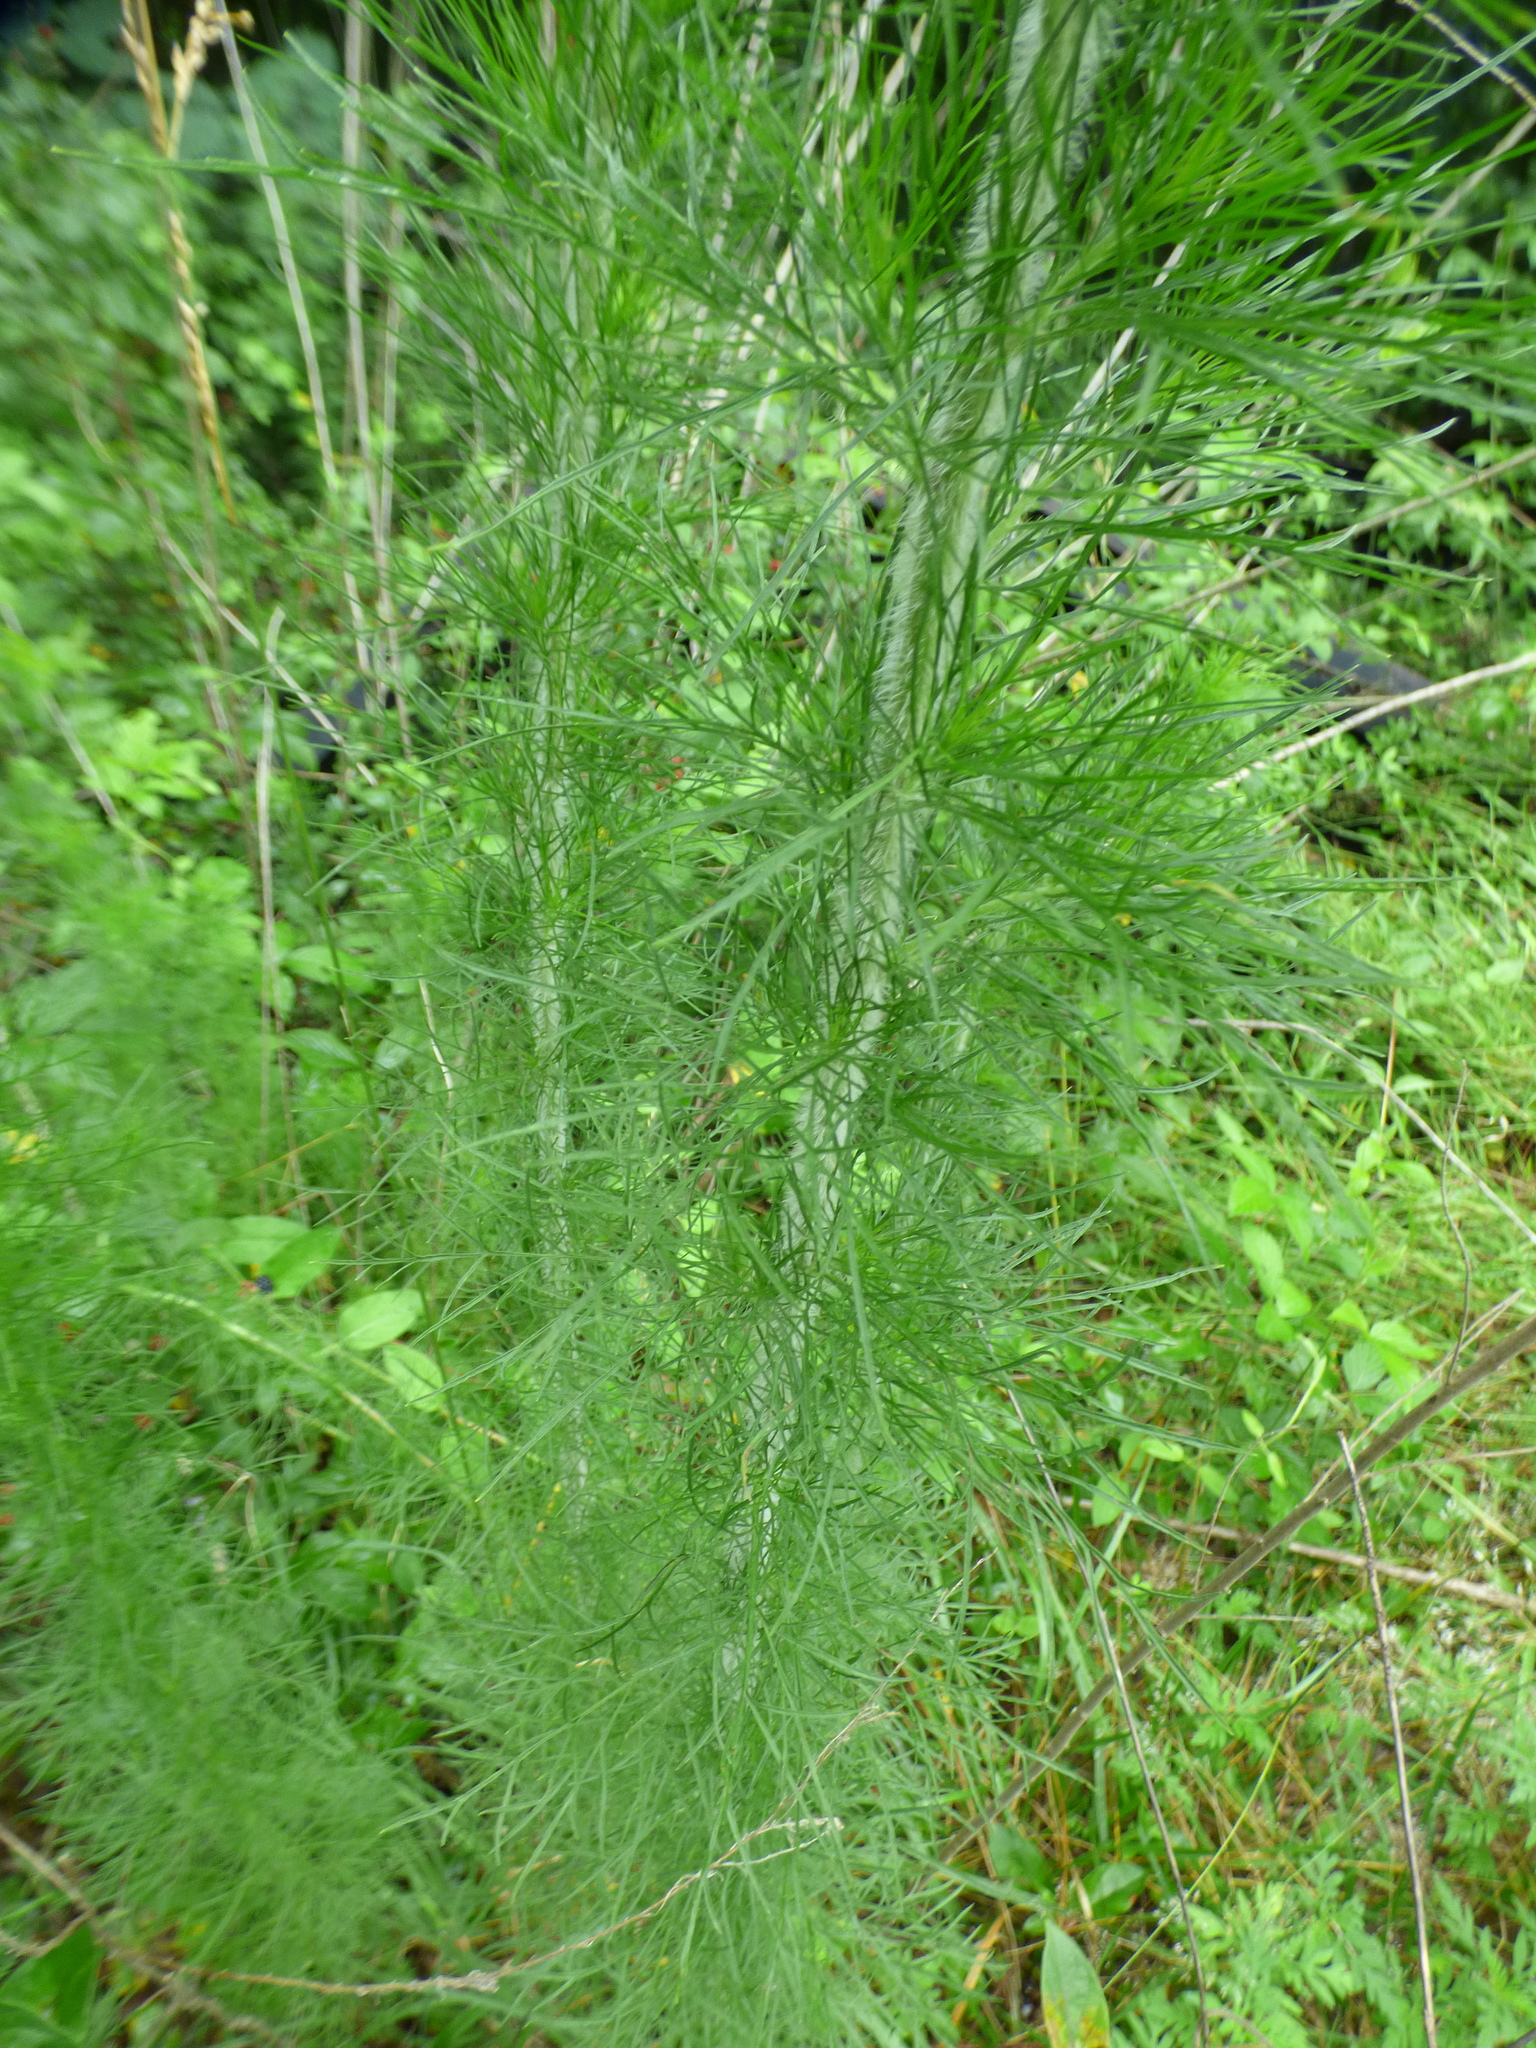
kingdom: Plantae
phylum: Tracheophyta
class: Magnoliopsida
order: Asterales
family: Asteraceae
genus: Eupatorium
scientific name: Eupatorium capillifolium
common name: Dog-fennel
